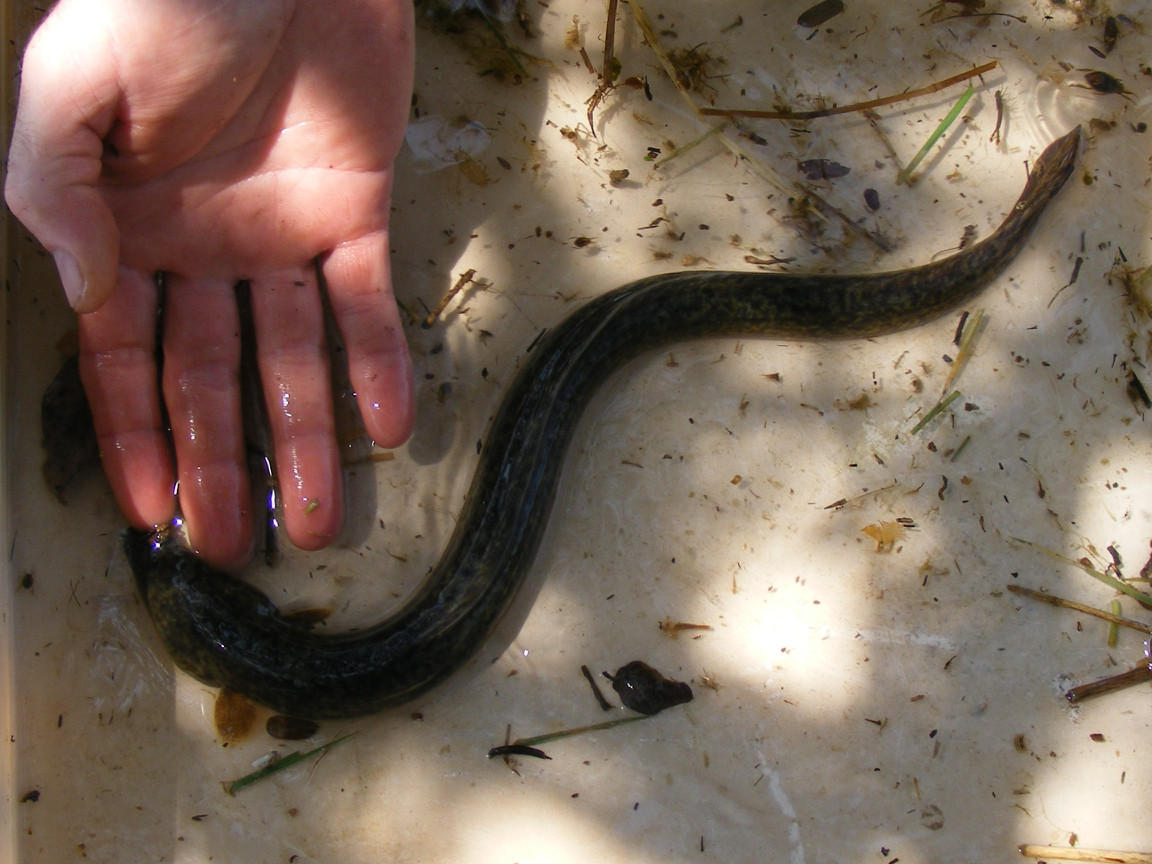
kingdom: Animalia
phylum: Chordata
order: Anguilliformes
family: Anguillidae
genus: Anguilla
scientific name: Anguilla marmorata
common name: Giant mottled eel
